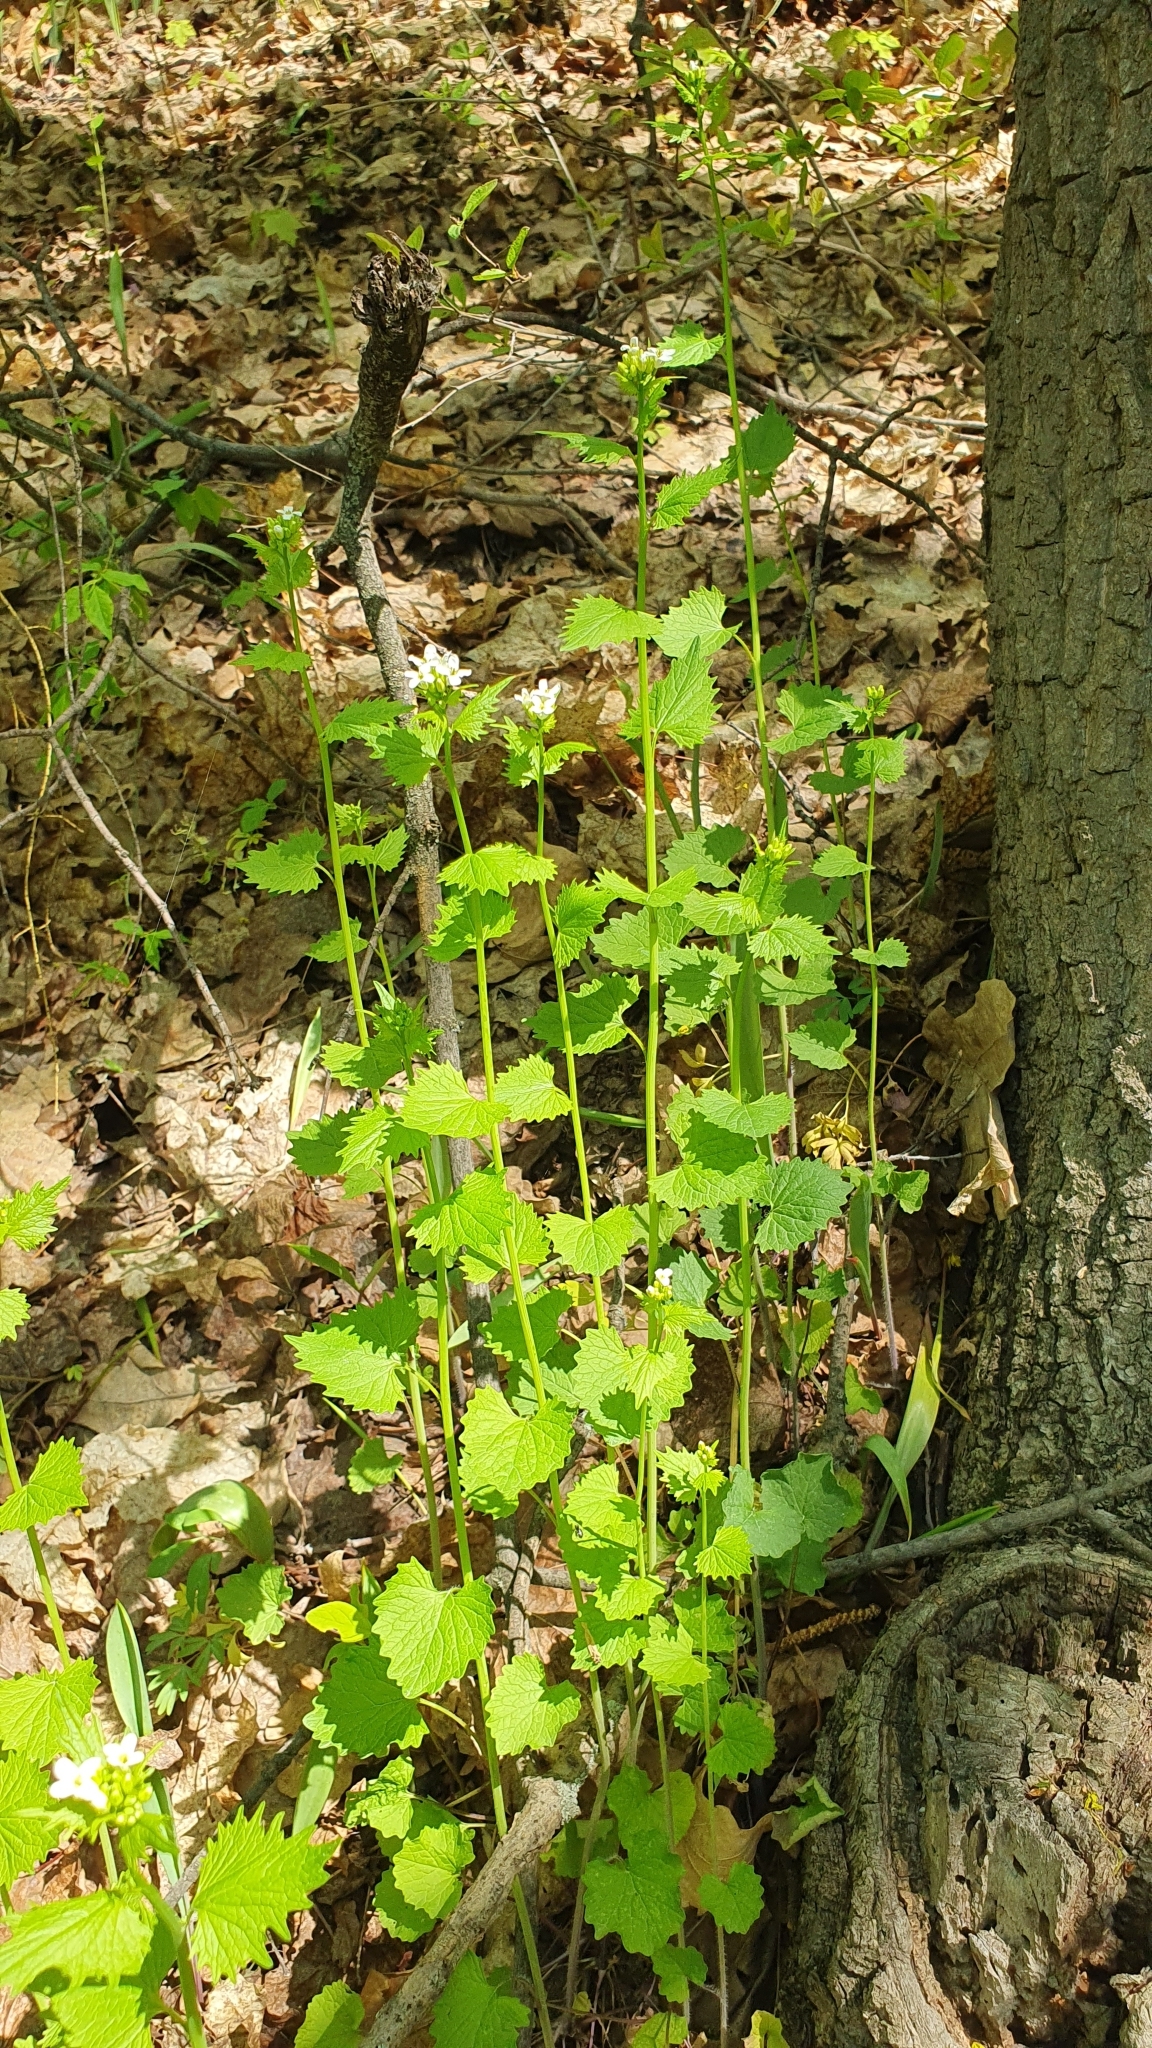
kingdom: Plantae
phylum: Tracheophyta
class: Magnoliopsida
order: Brassicales
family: Brassicaceae
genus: Alliaria
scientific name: Alliaria petiolata
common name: Garlic mustard
